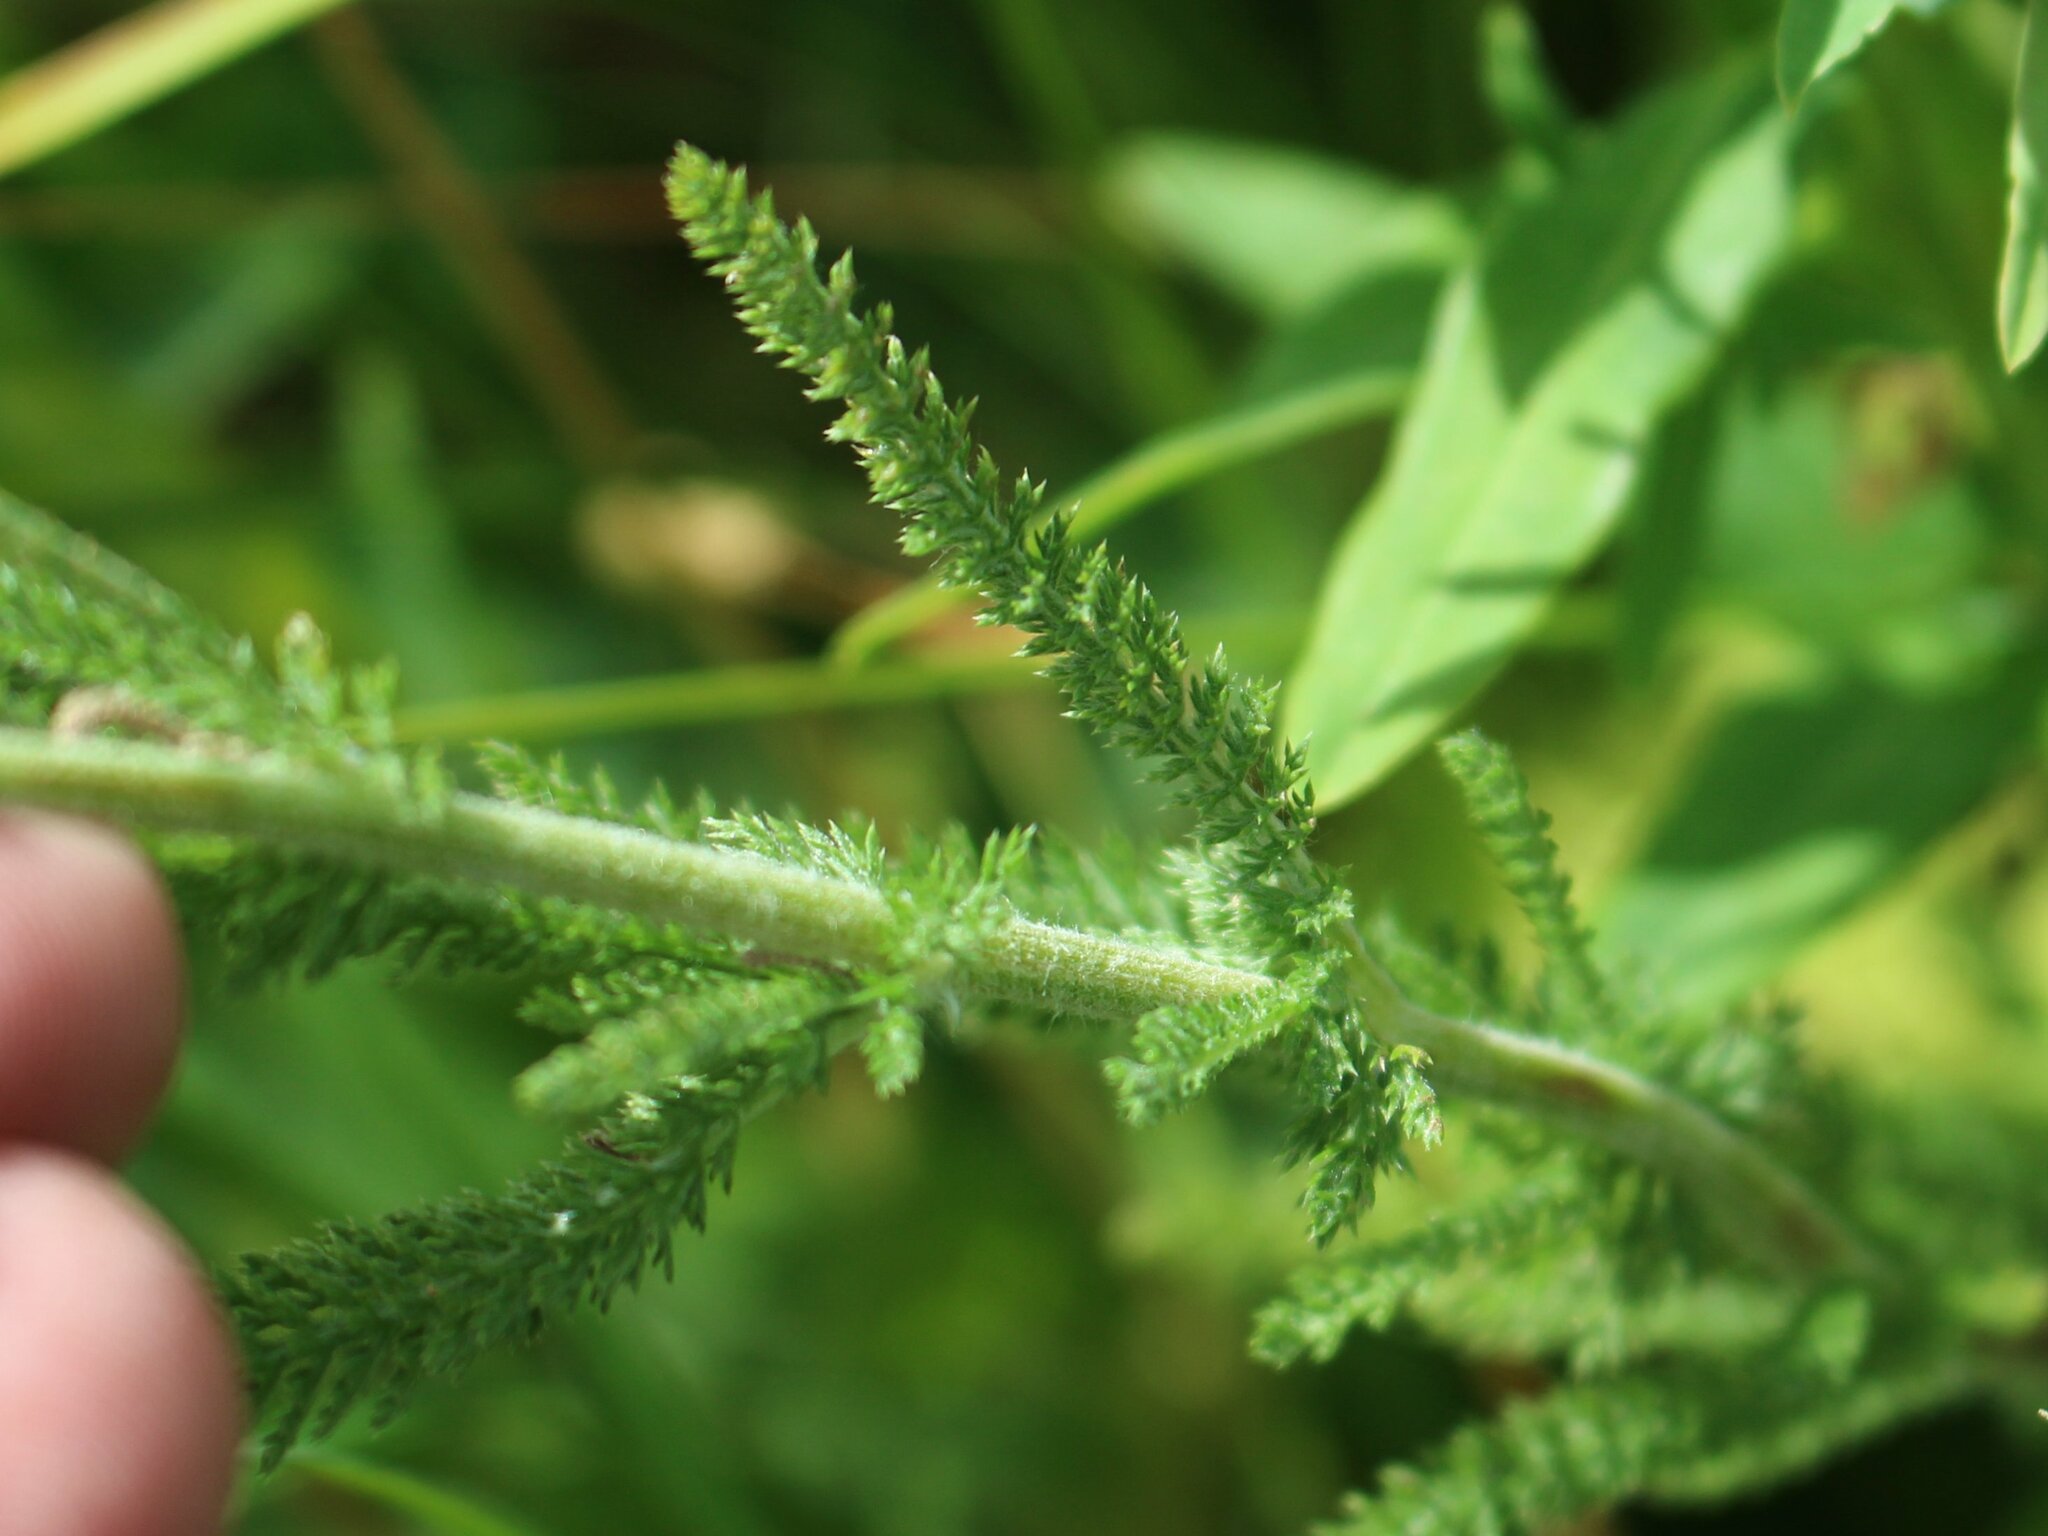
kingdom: Plantae
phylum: Tracheophyta
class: Magnoliopsida
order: Asterales
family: Asteraceae
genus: Achillea
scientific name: Achillea millefolium
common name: Yarrow
